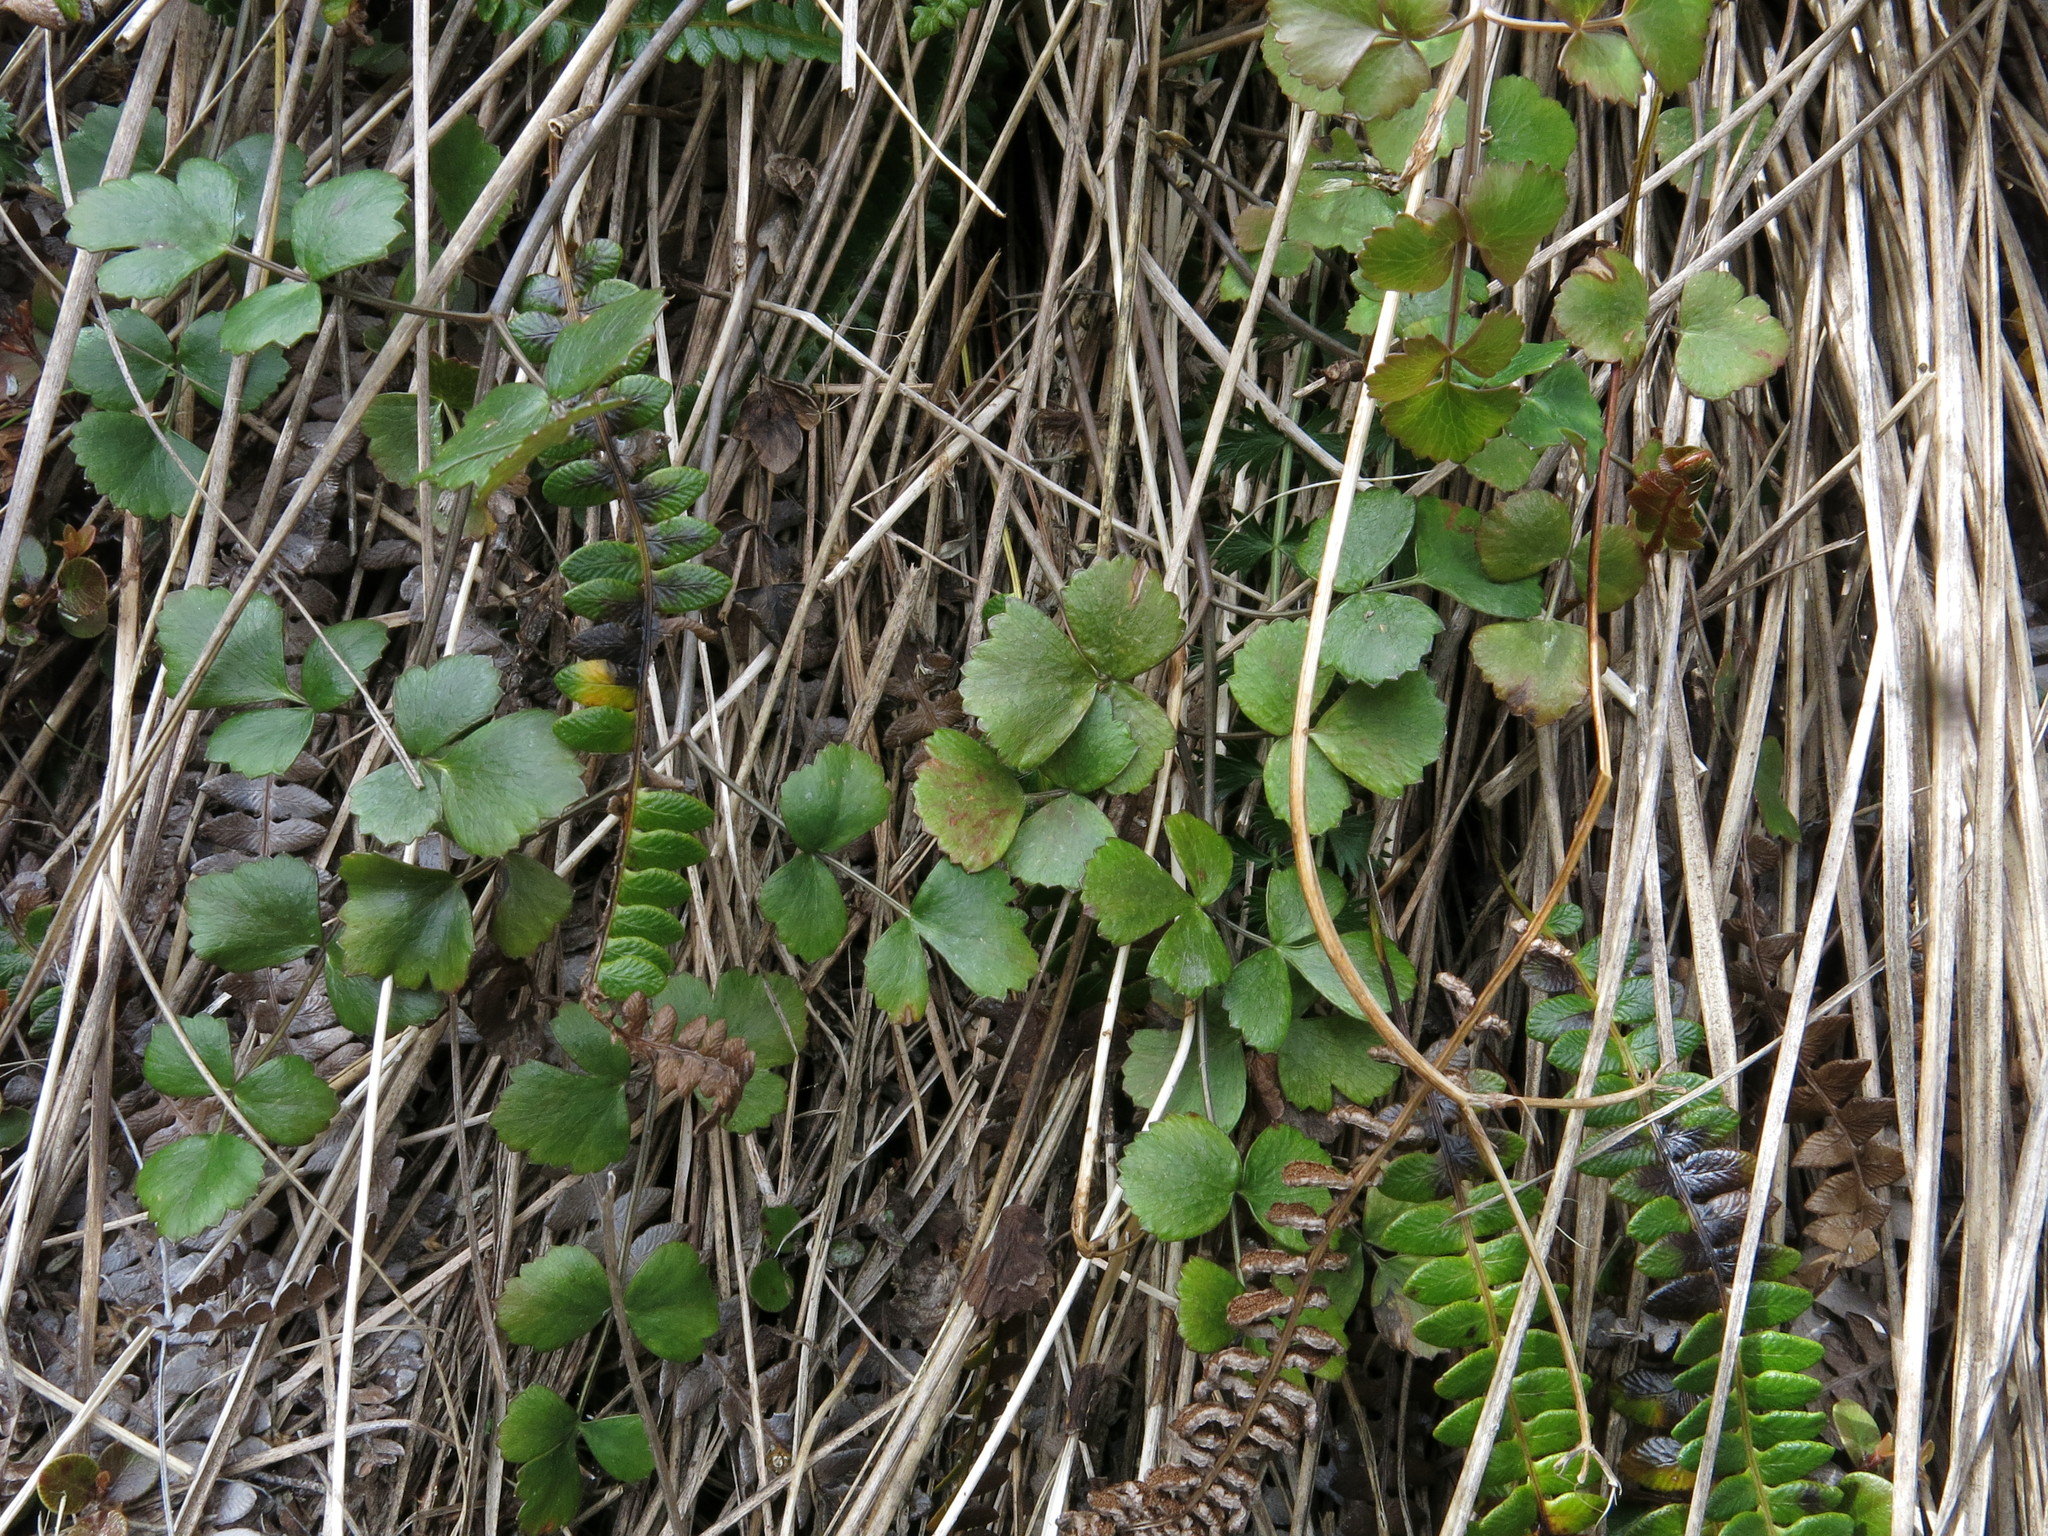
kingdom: Plantae
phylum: Tracheophyta
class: Magnoliopsida
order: Apiales
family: Apiaceae
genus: Gingidia
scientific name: Gingidia trifoliolata
